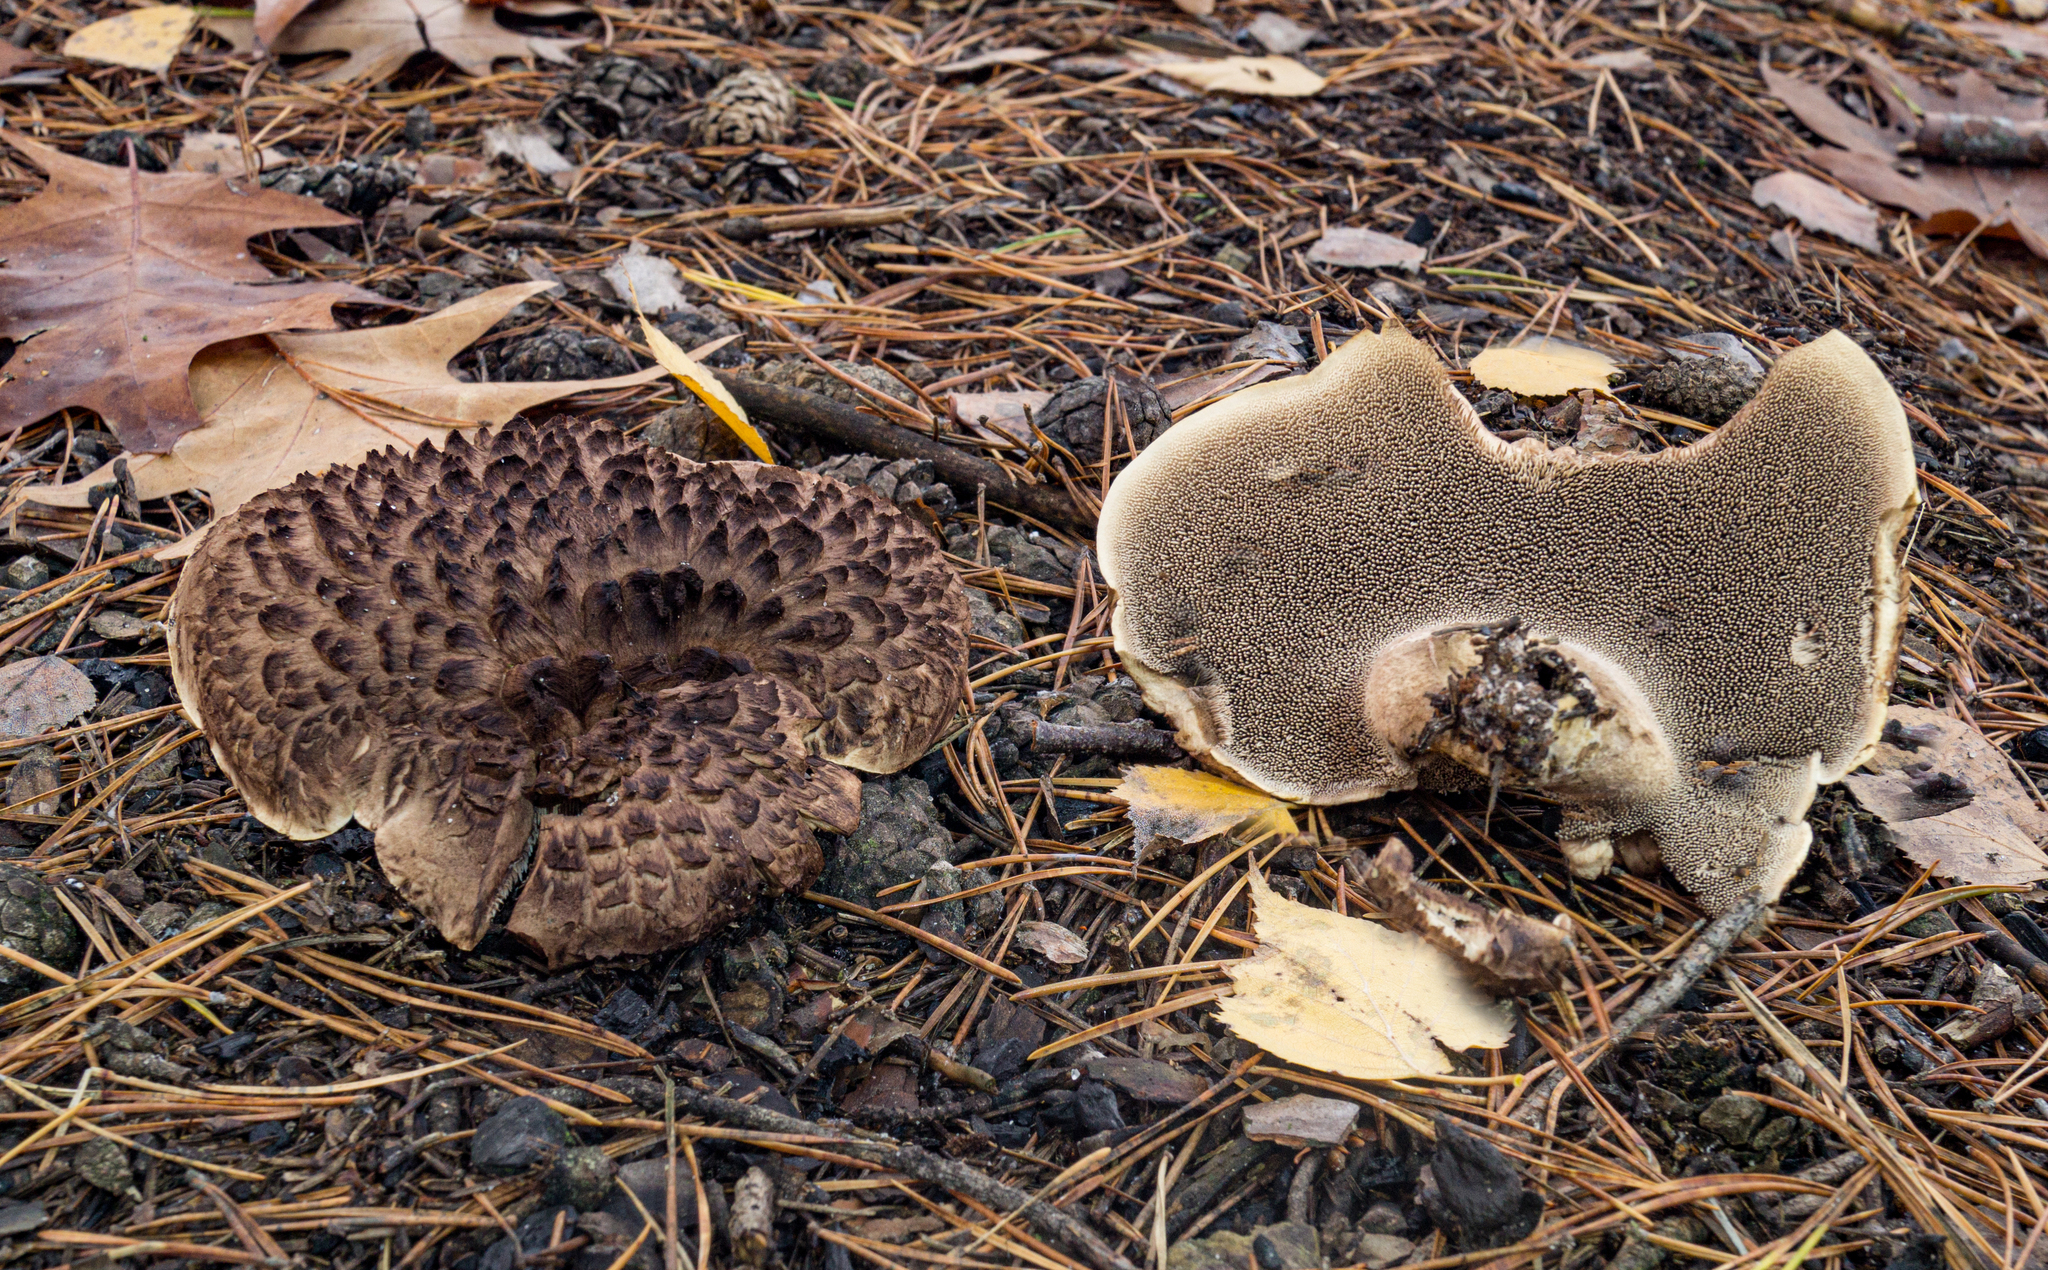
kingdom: Fungi
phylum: Basidiomycota
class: Agaricomycetes
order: Thelephorales
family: Bankeraceae
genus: Sarcodon
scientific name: Sarcodon squamosus
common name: Scaly tooth
